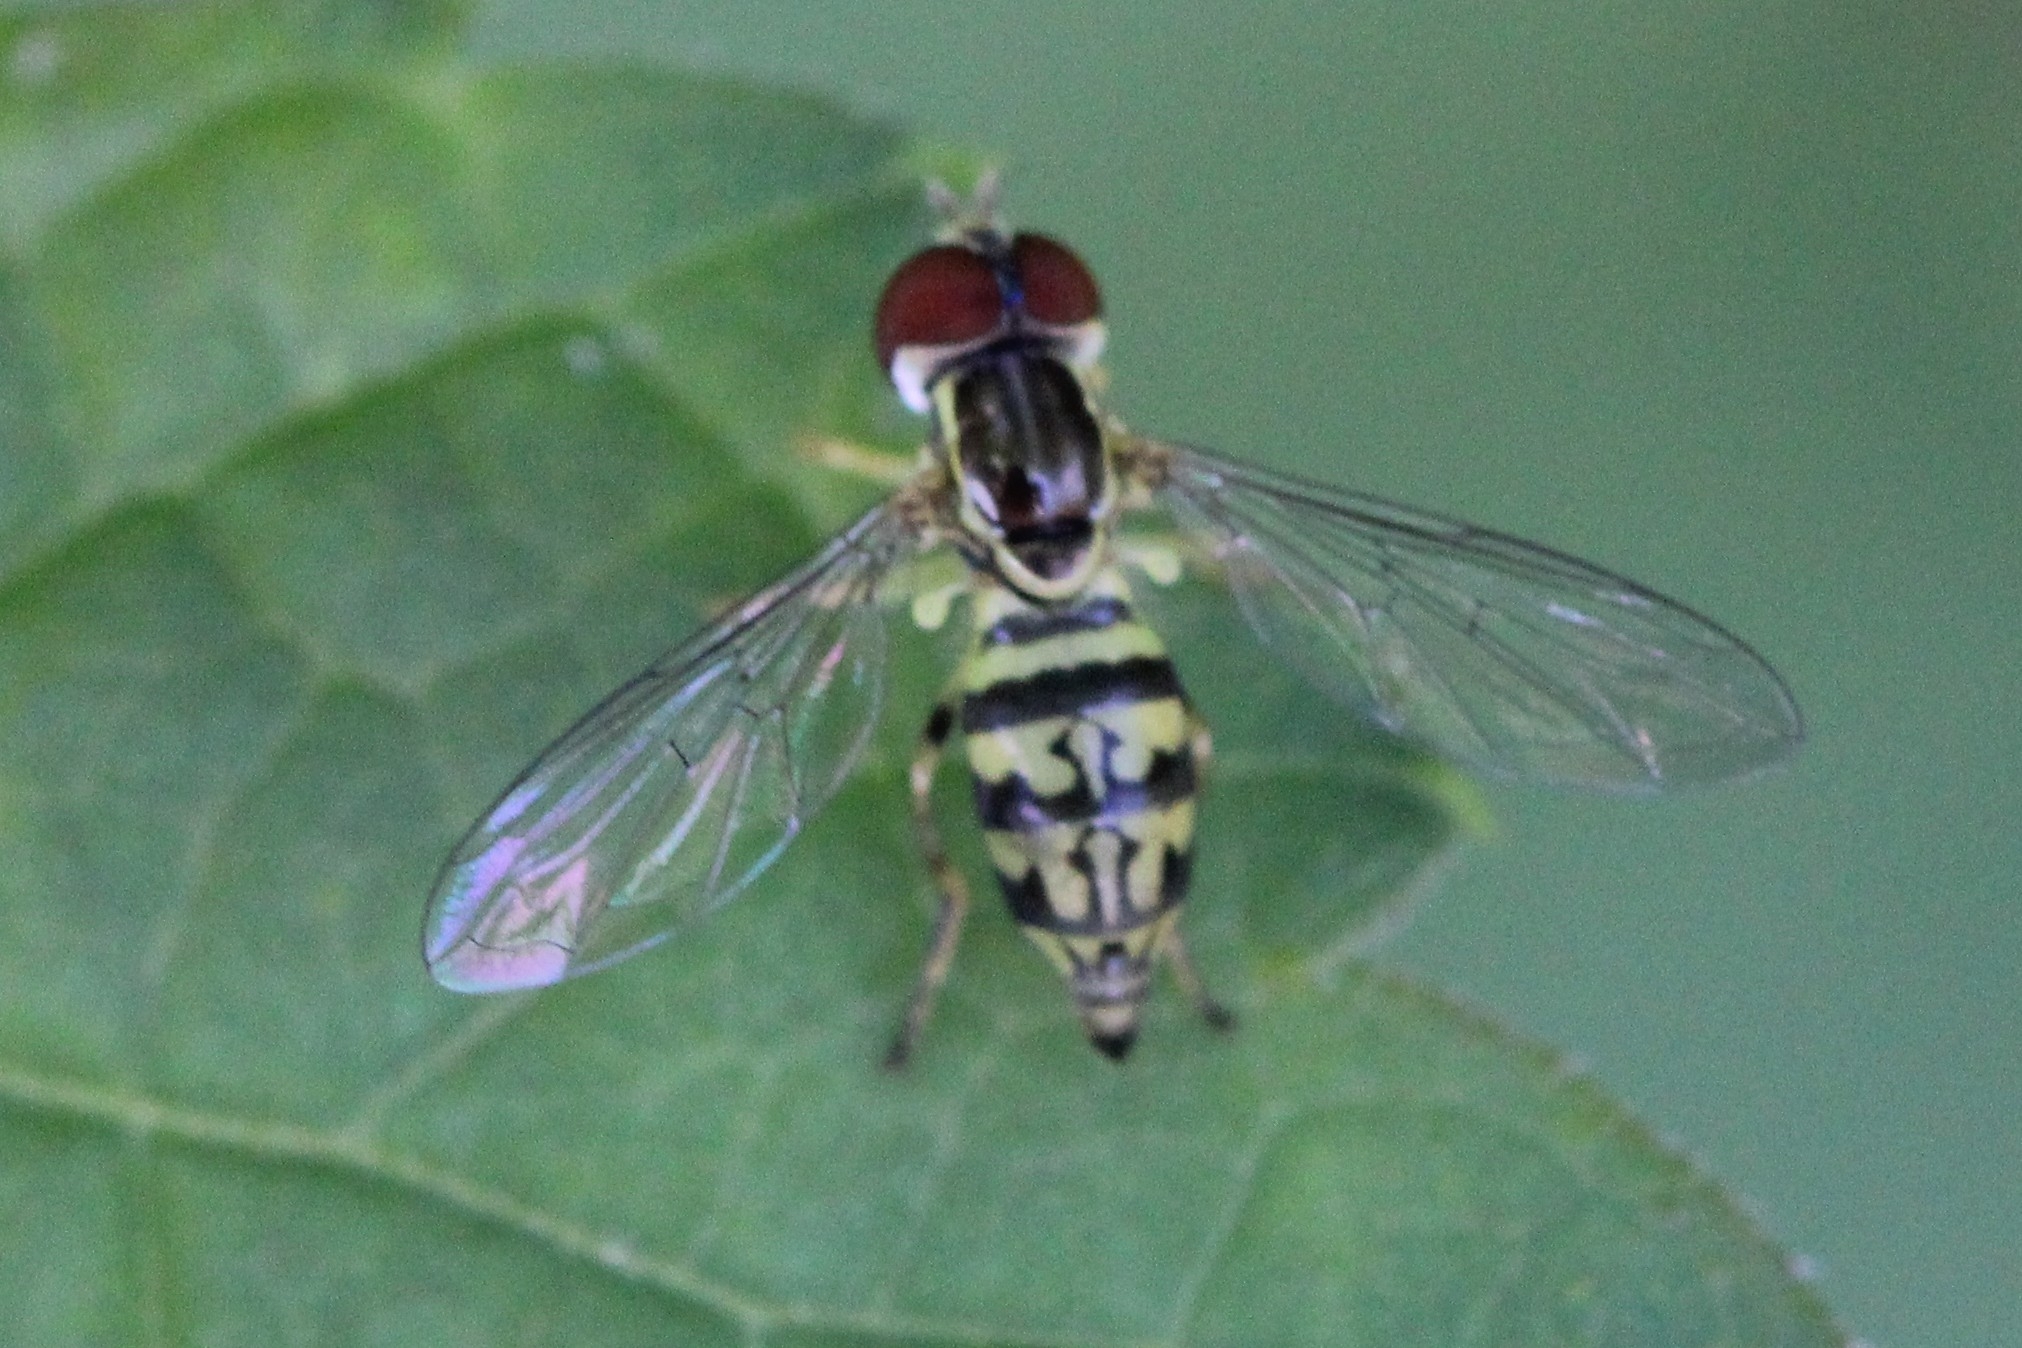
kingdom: Animalia
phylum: Arthropoda
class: Insecta
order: Diptera
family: Syrphidae
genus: Toxomerus
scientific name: Toxomerus geminatus
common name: Eastern calligrapher
